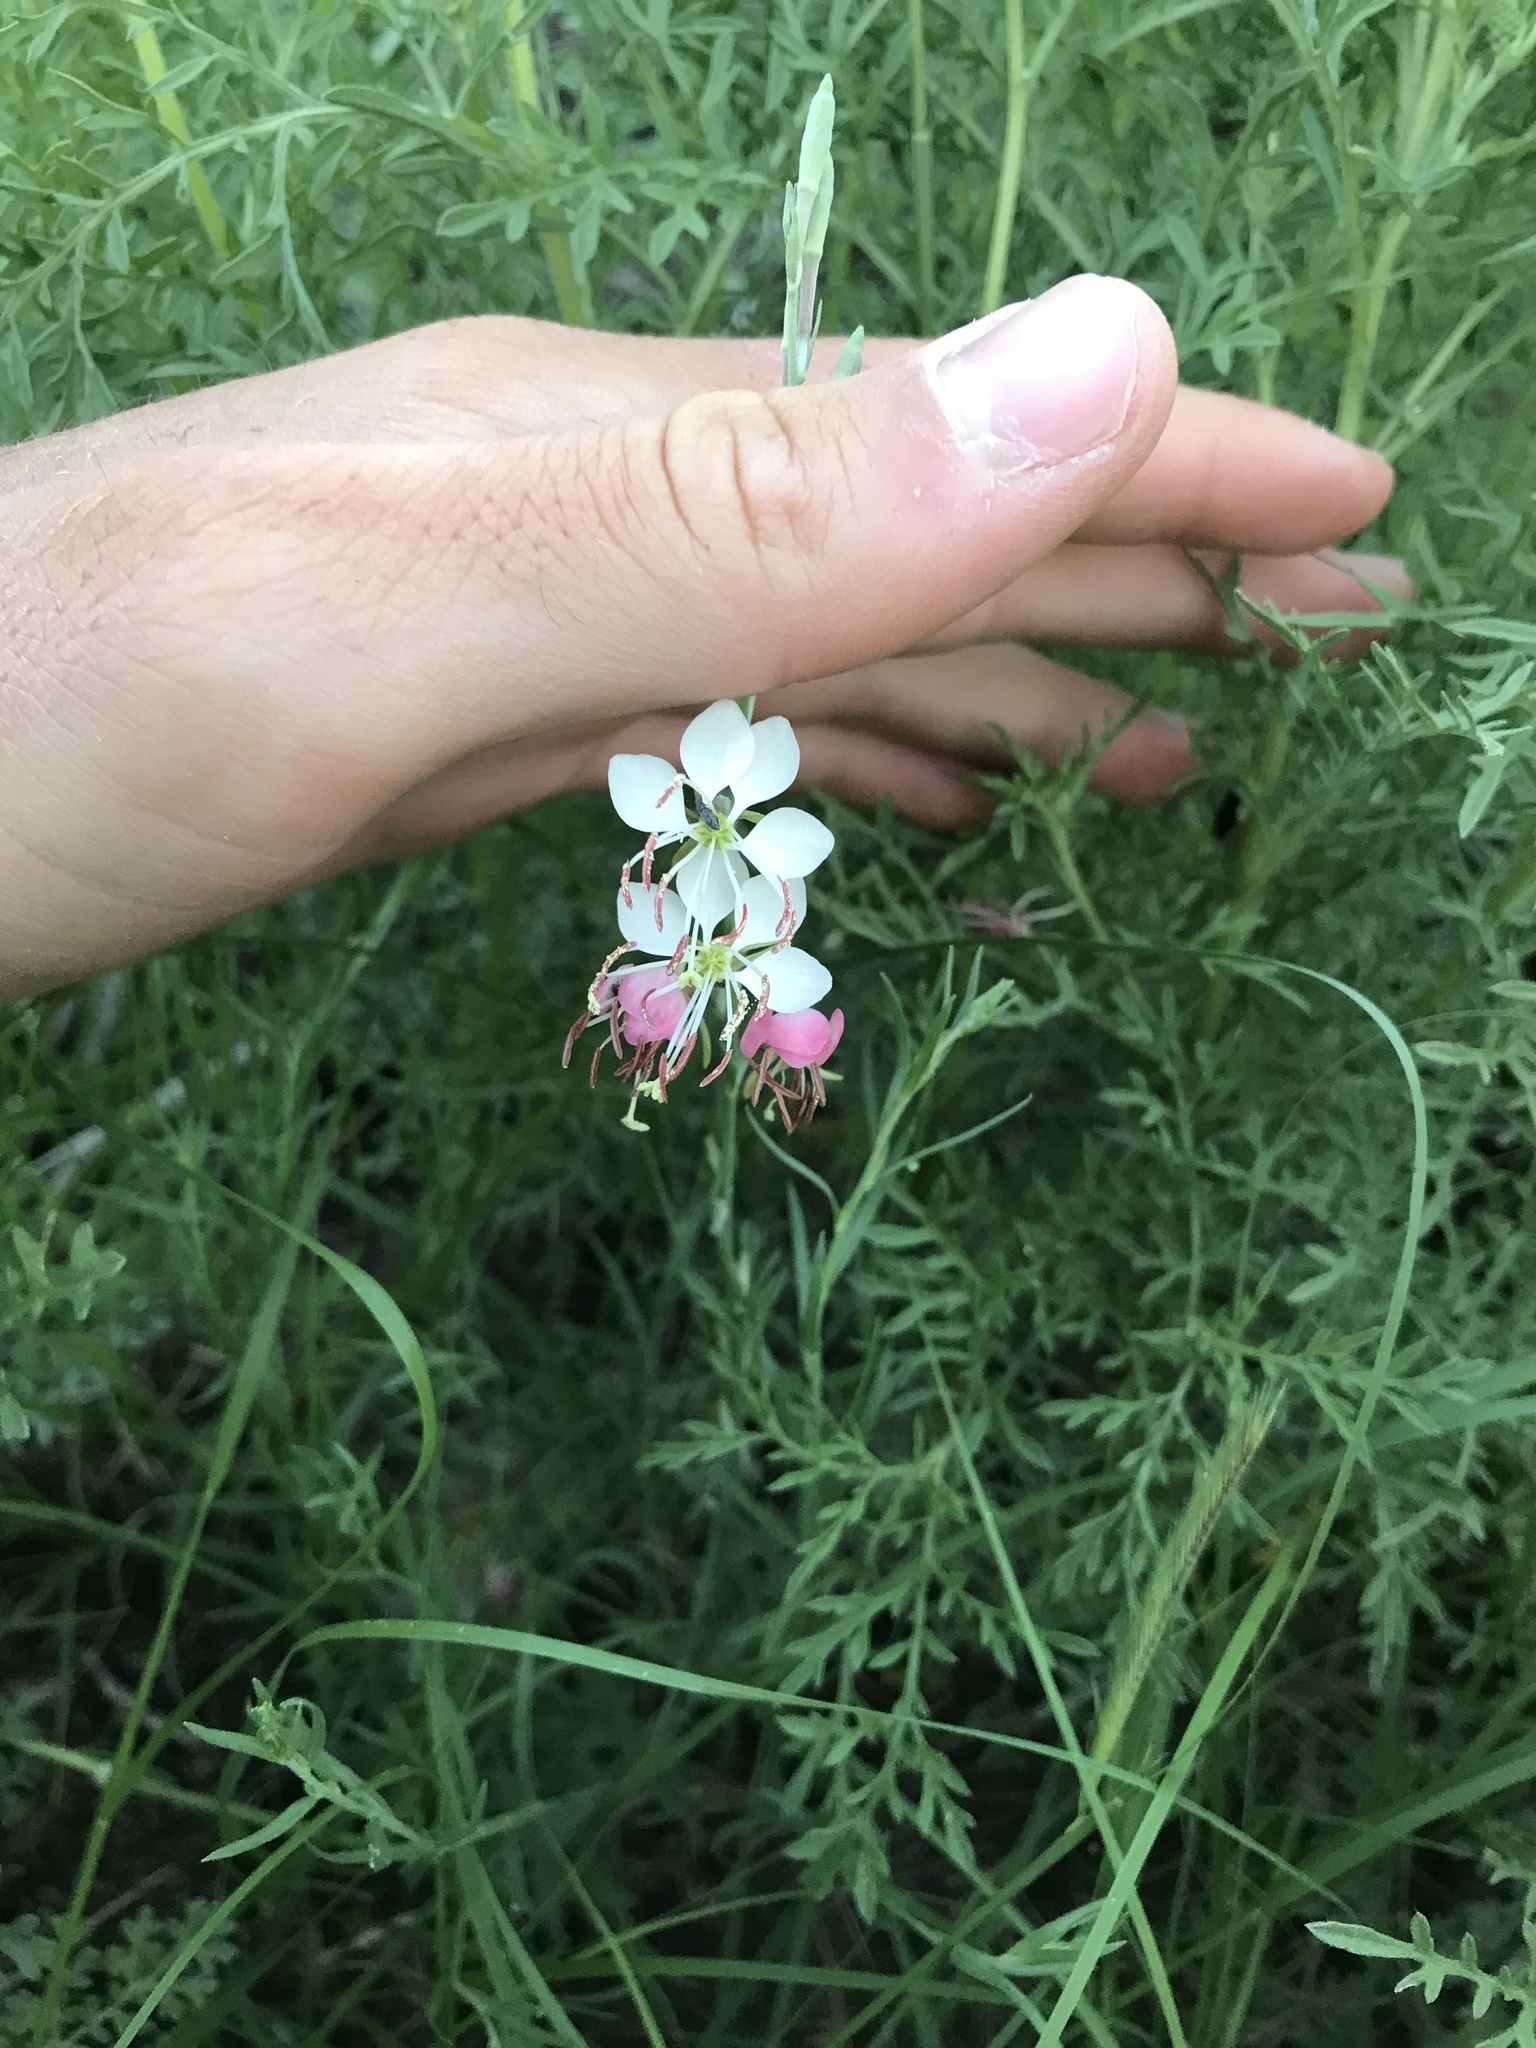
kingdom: Plantae
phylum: Tracheophyta
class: Magnoliopsida
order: Myrtales
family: Onagraceae
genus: Oenothera
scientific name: Oenothera suffrutescens
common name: Scarlet beeblossom
